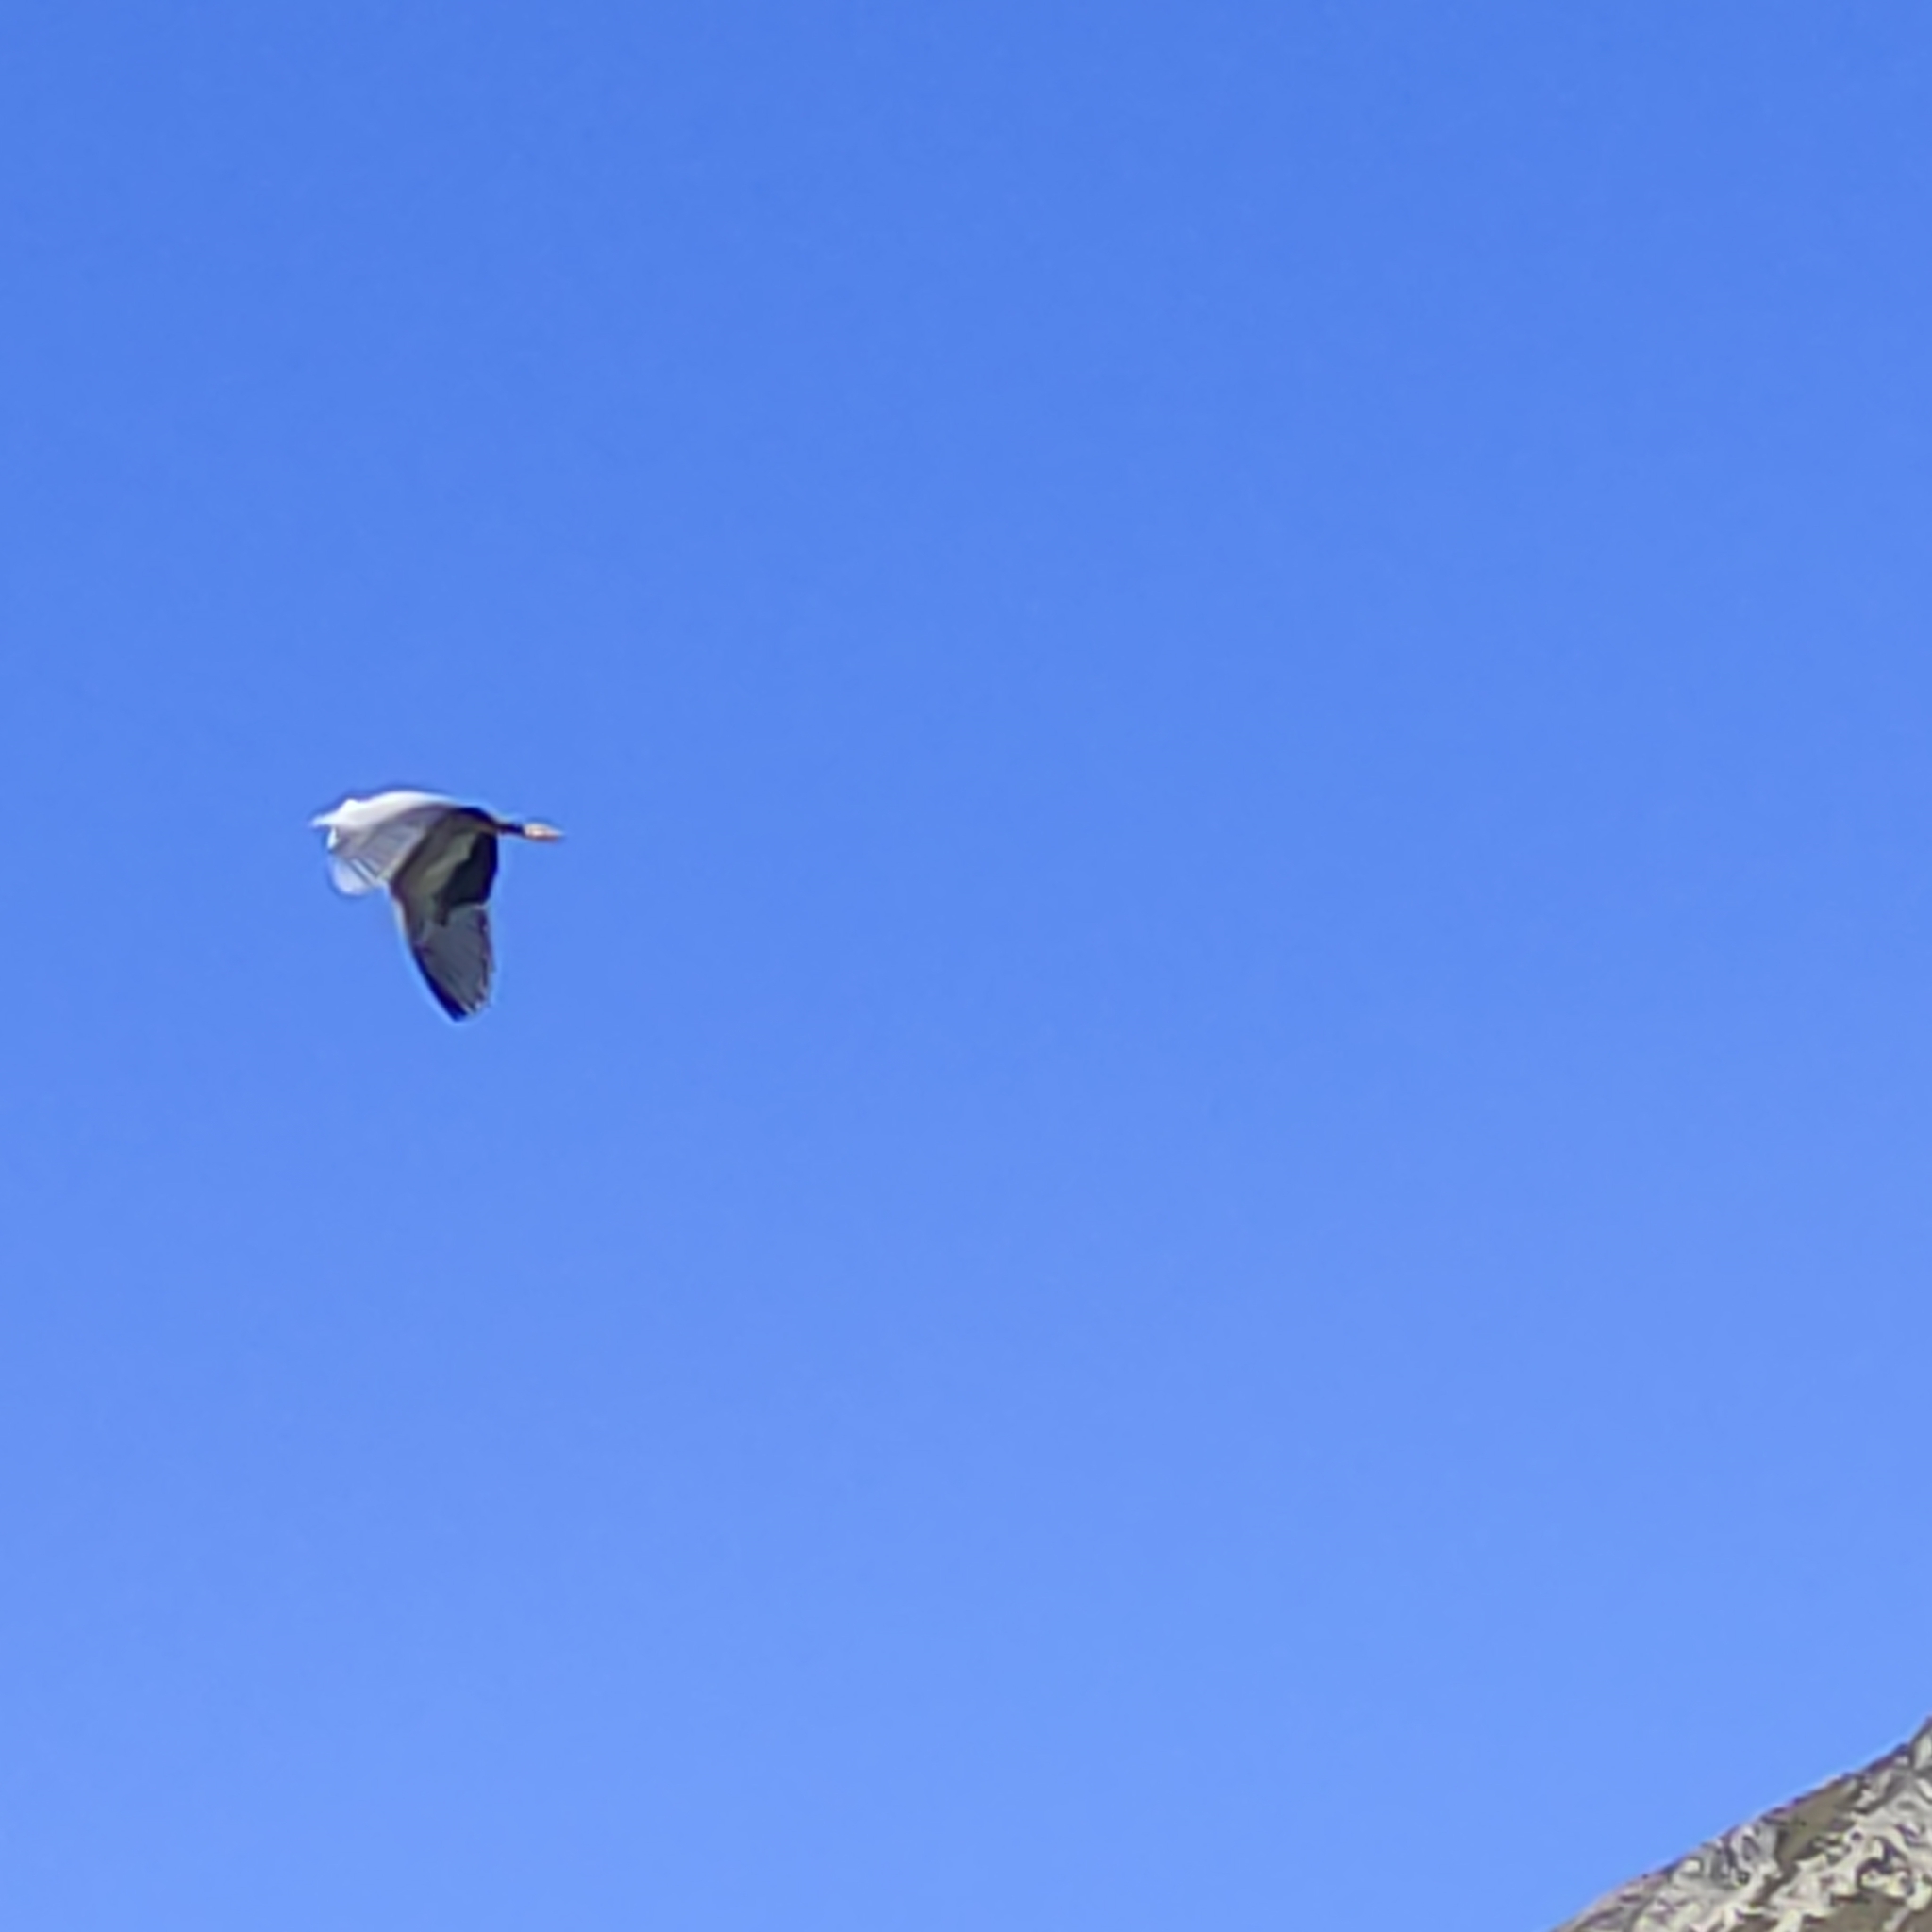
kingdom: Animalia
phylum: Chordata
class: Aves
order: Pelecaniformes
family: Ardeidae
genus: Egretta
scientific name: Egretta novaehollandiae
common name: White-faced heron
